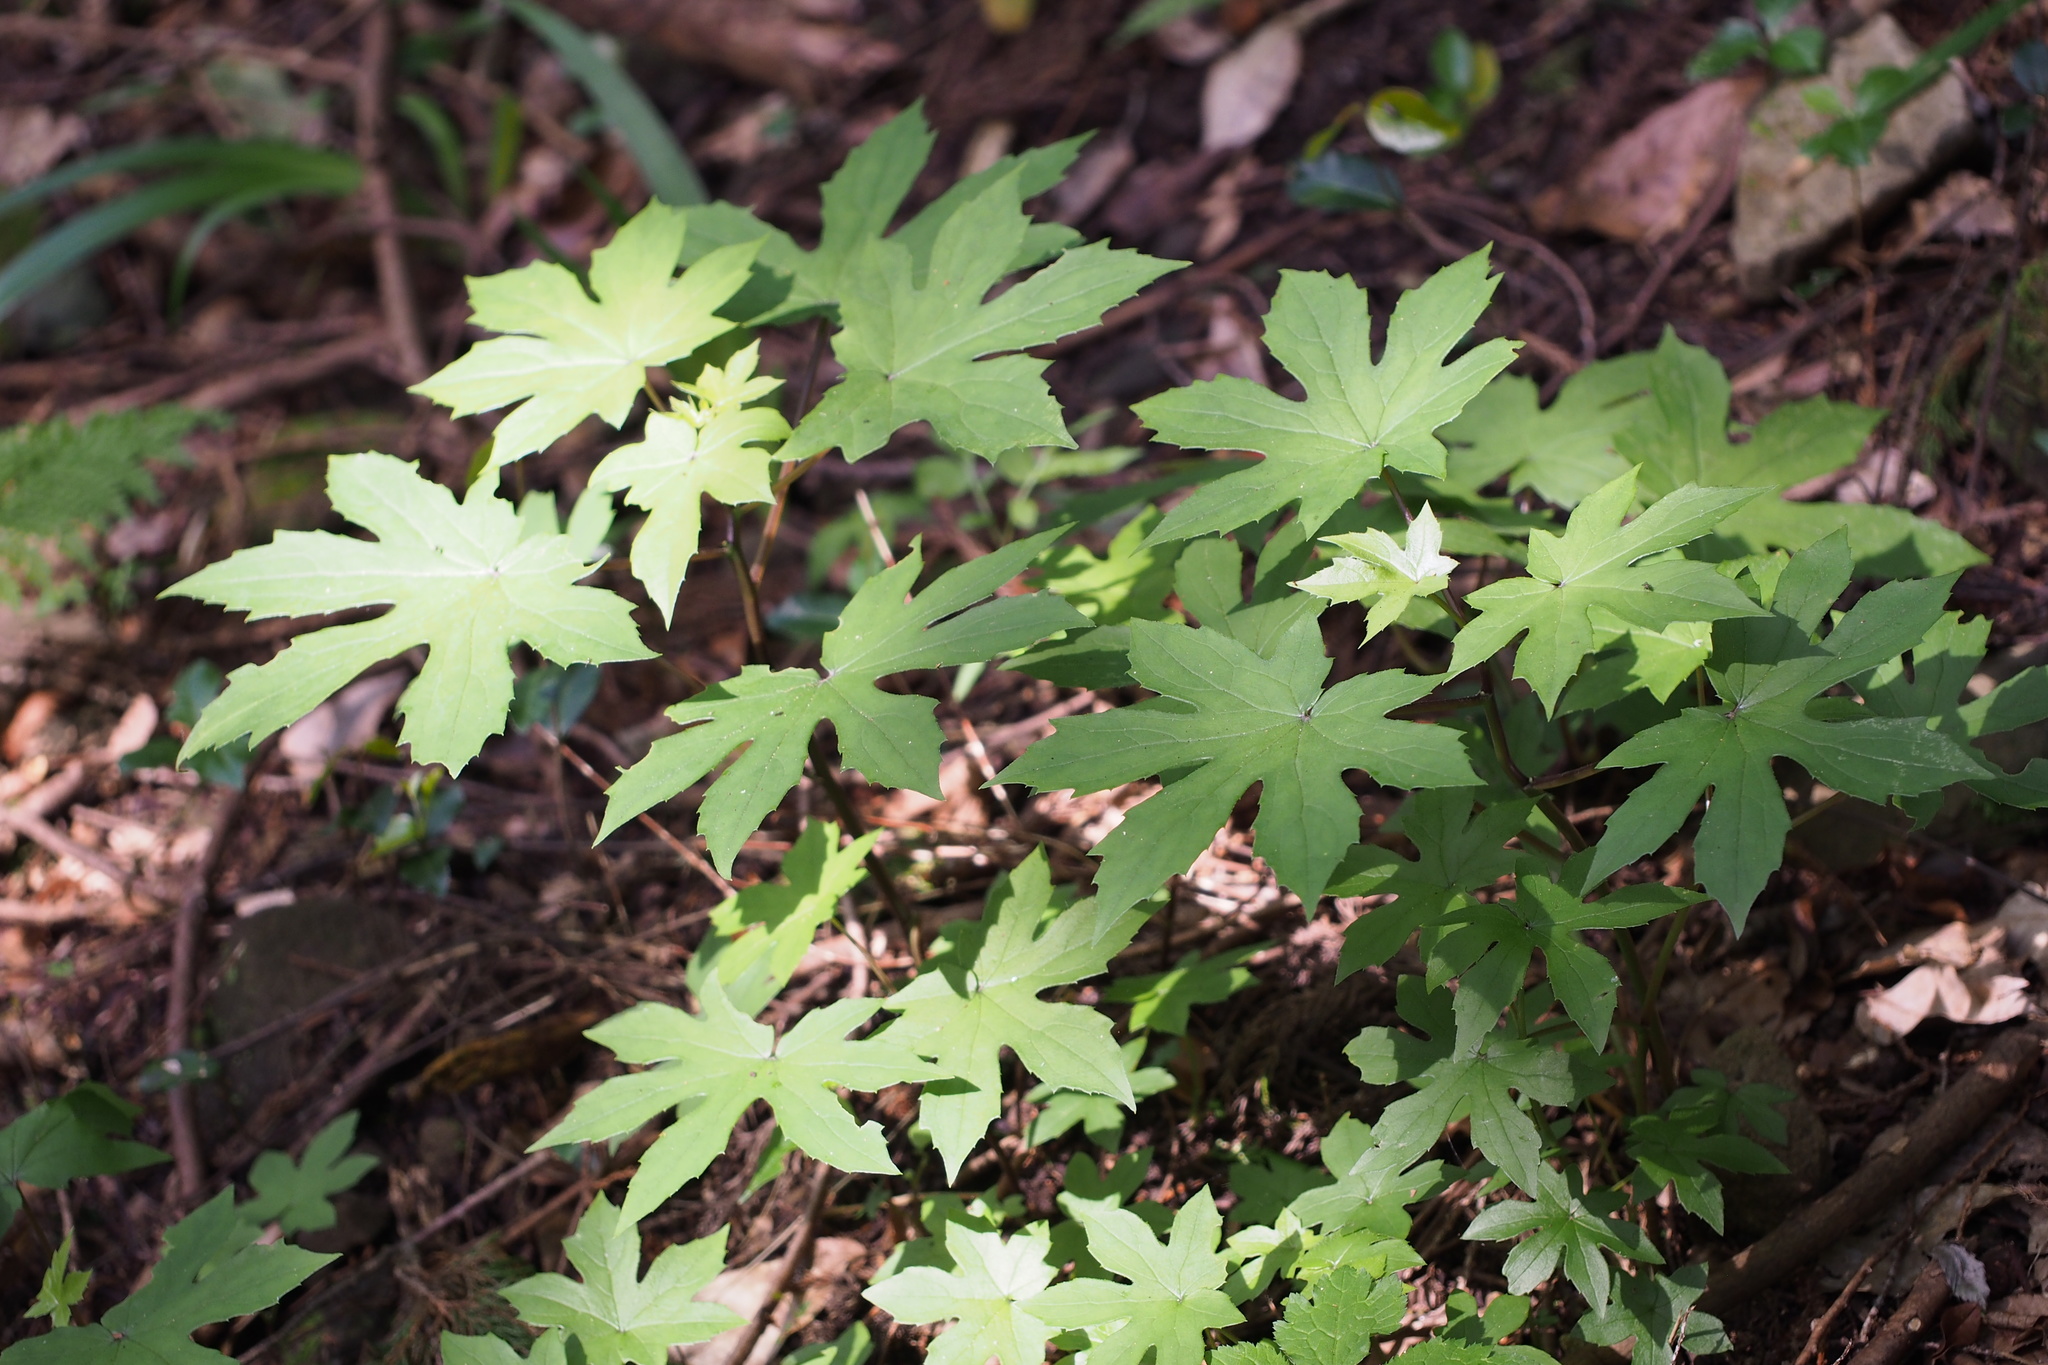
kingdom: Plantae
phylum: Tracheophyta
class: Magnoliopsida
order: Asterales
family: Asteraceae
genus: Japonicalia
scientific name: Japonicalia delphiniifolia
